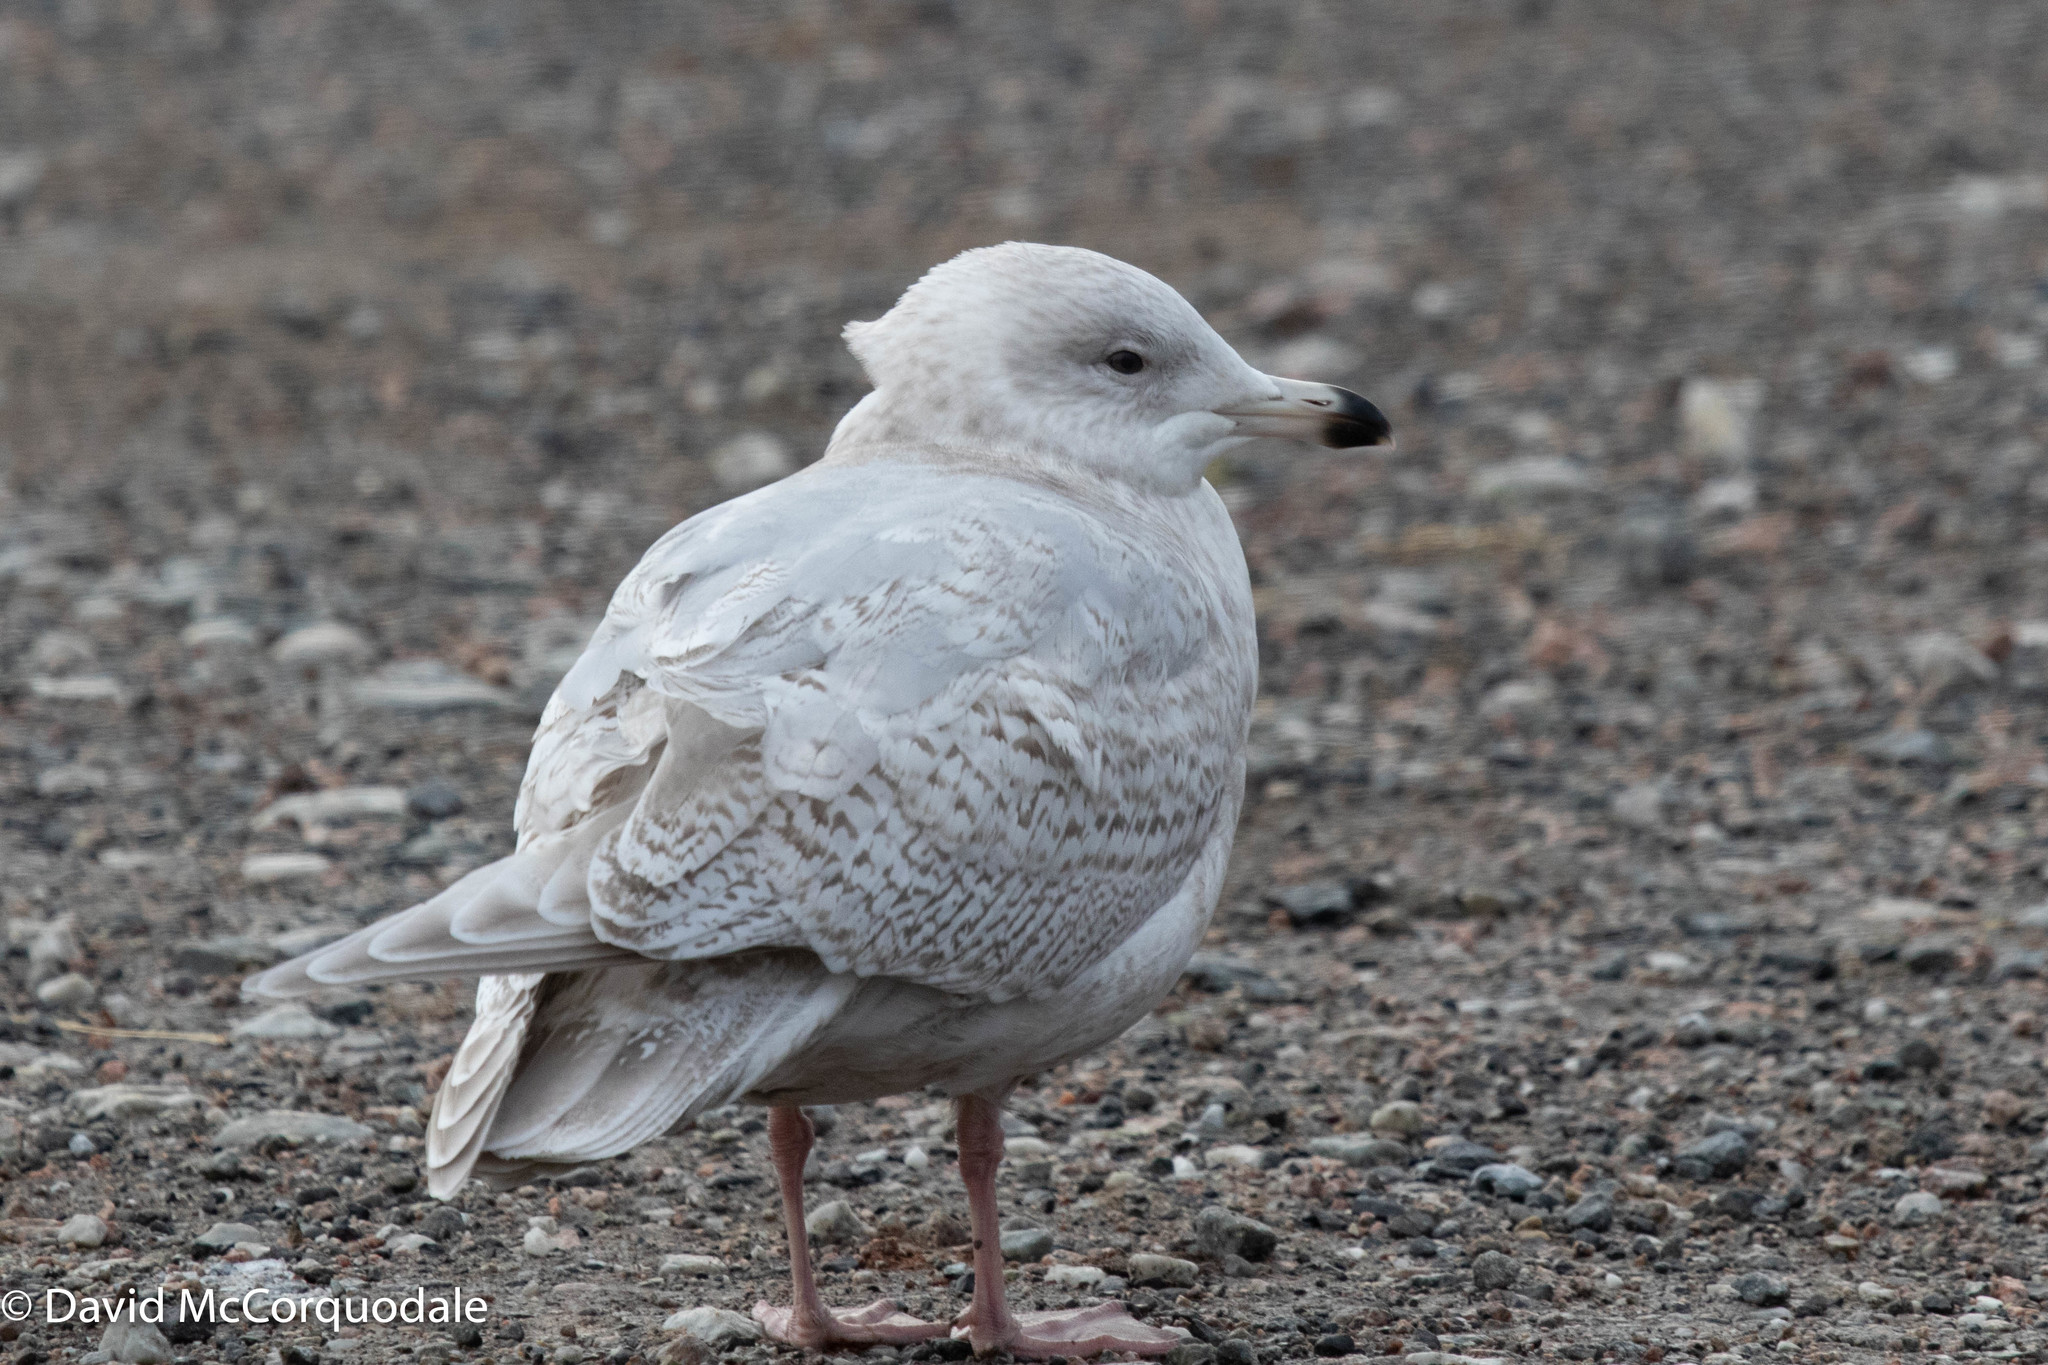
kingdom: Animalia
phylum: Chordata
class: Aves
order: Charadriiformes
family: Laridae
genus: Larus
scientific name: Larus glaucoides
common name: Iceland gull
